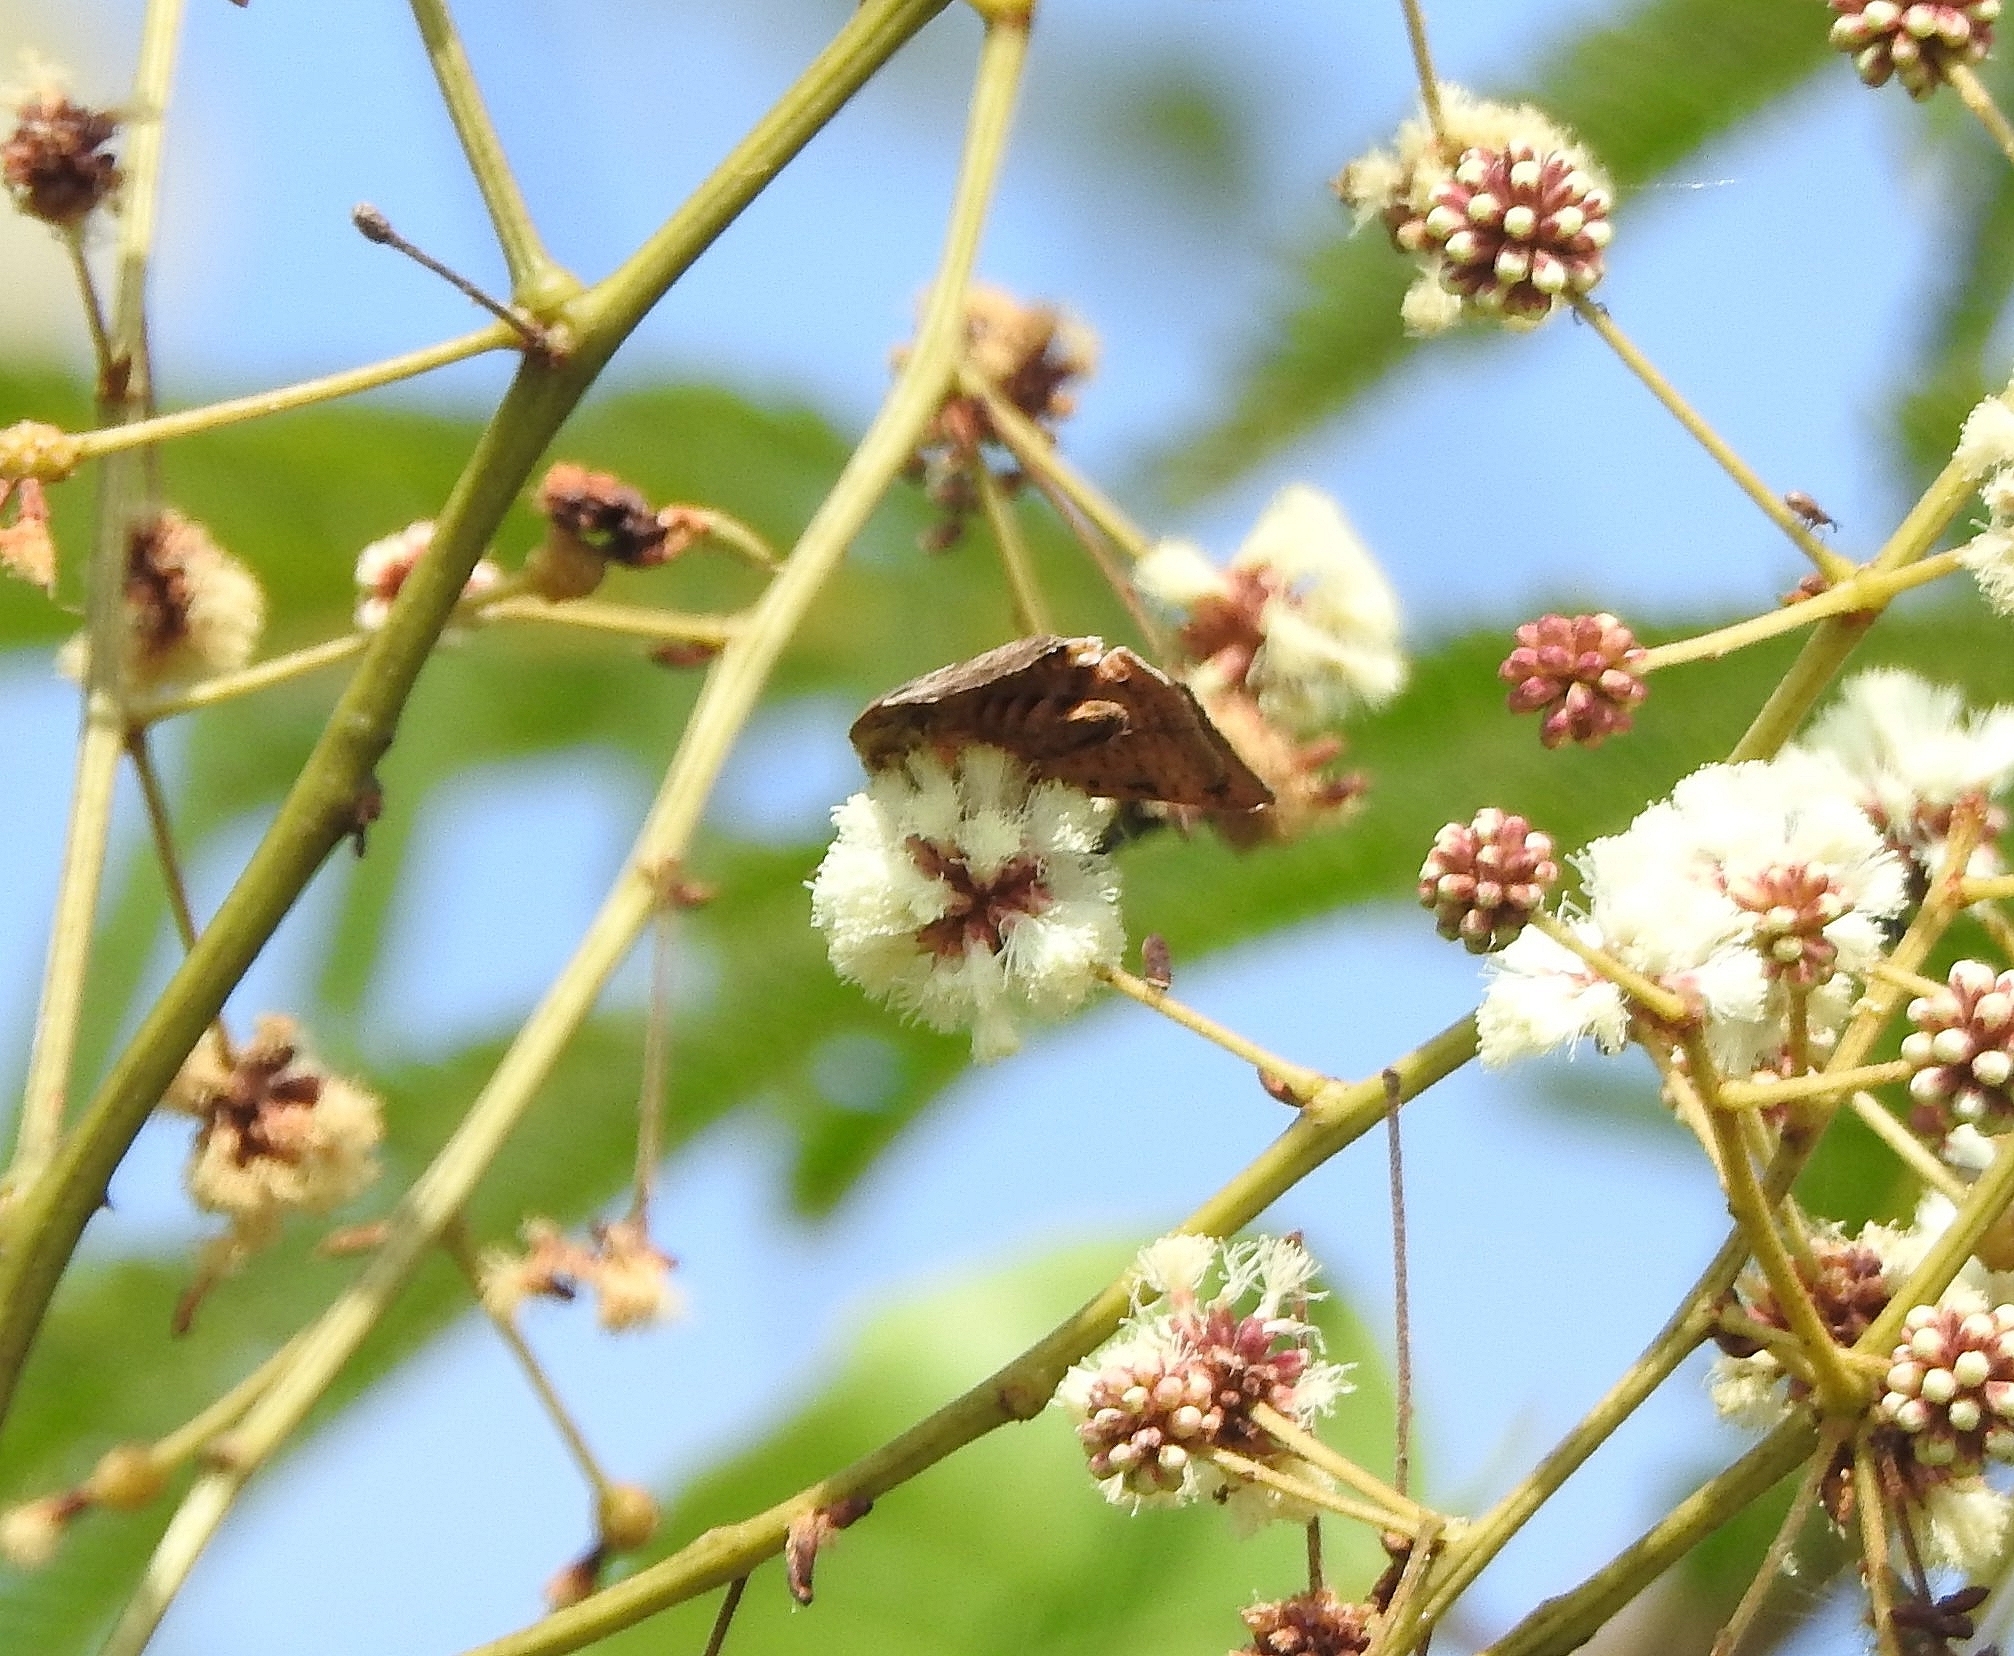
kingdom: Animalia
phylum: Arthropoda
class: Insecta
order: Lepidoptera
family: Hyblaeidae
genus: Hyblaea
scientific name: Hyblaea puera
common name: Teak defoliator moth
